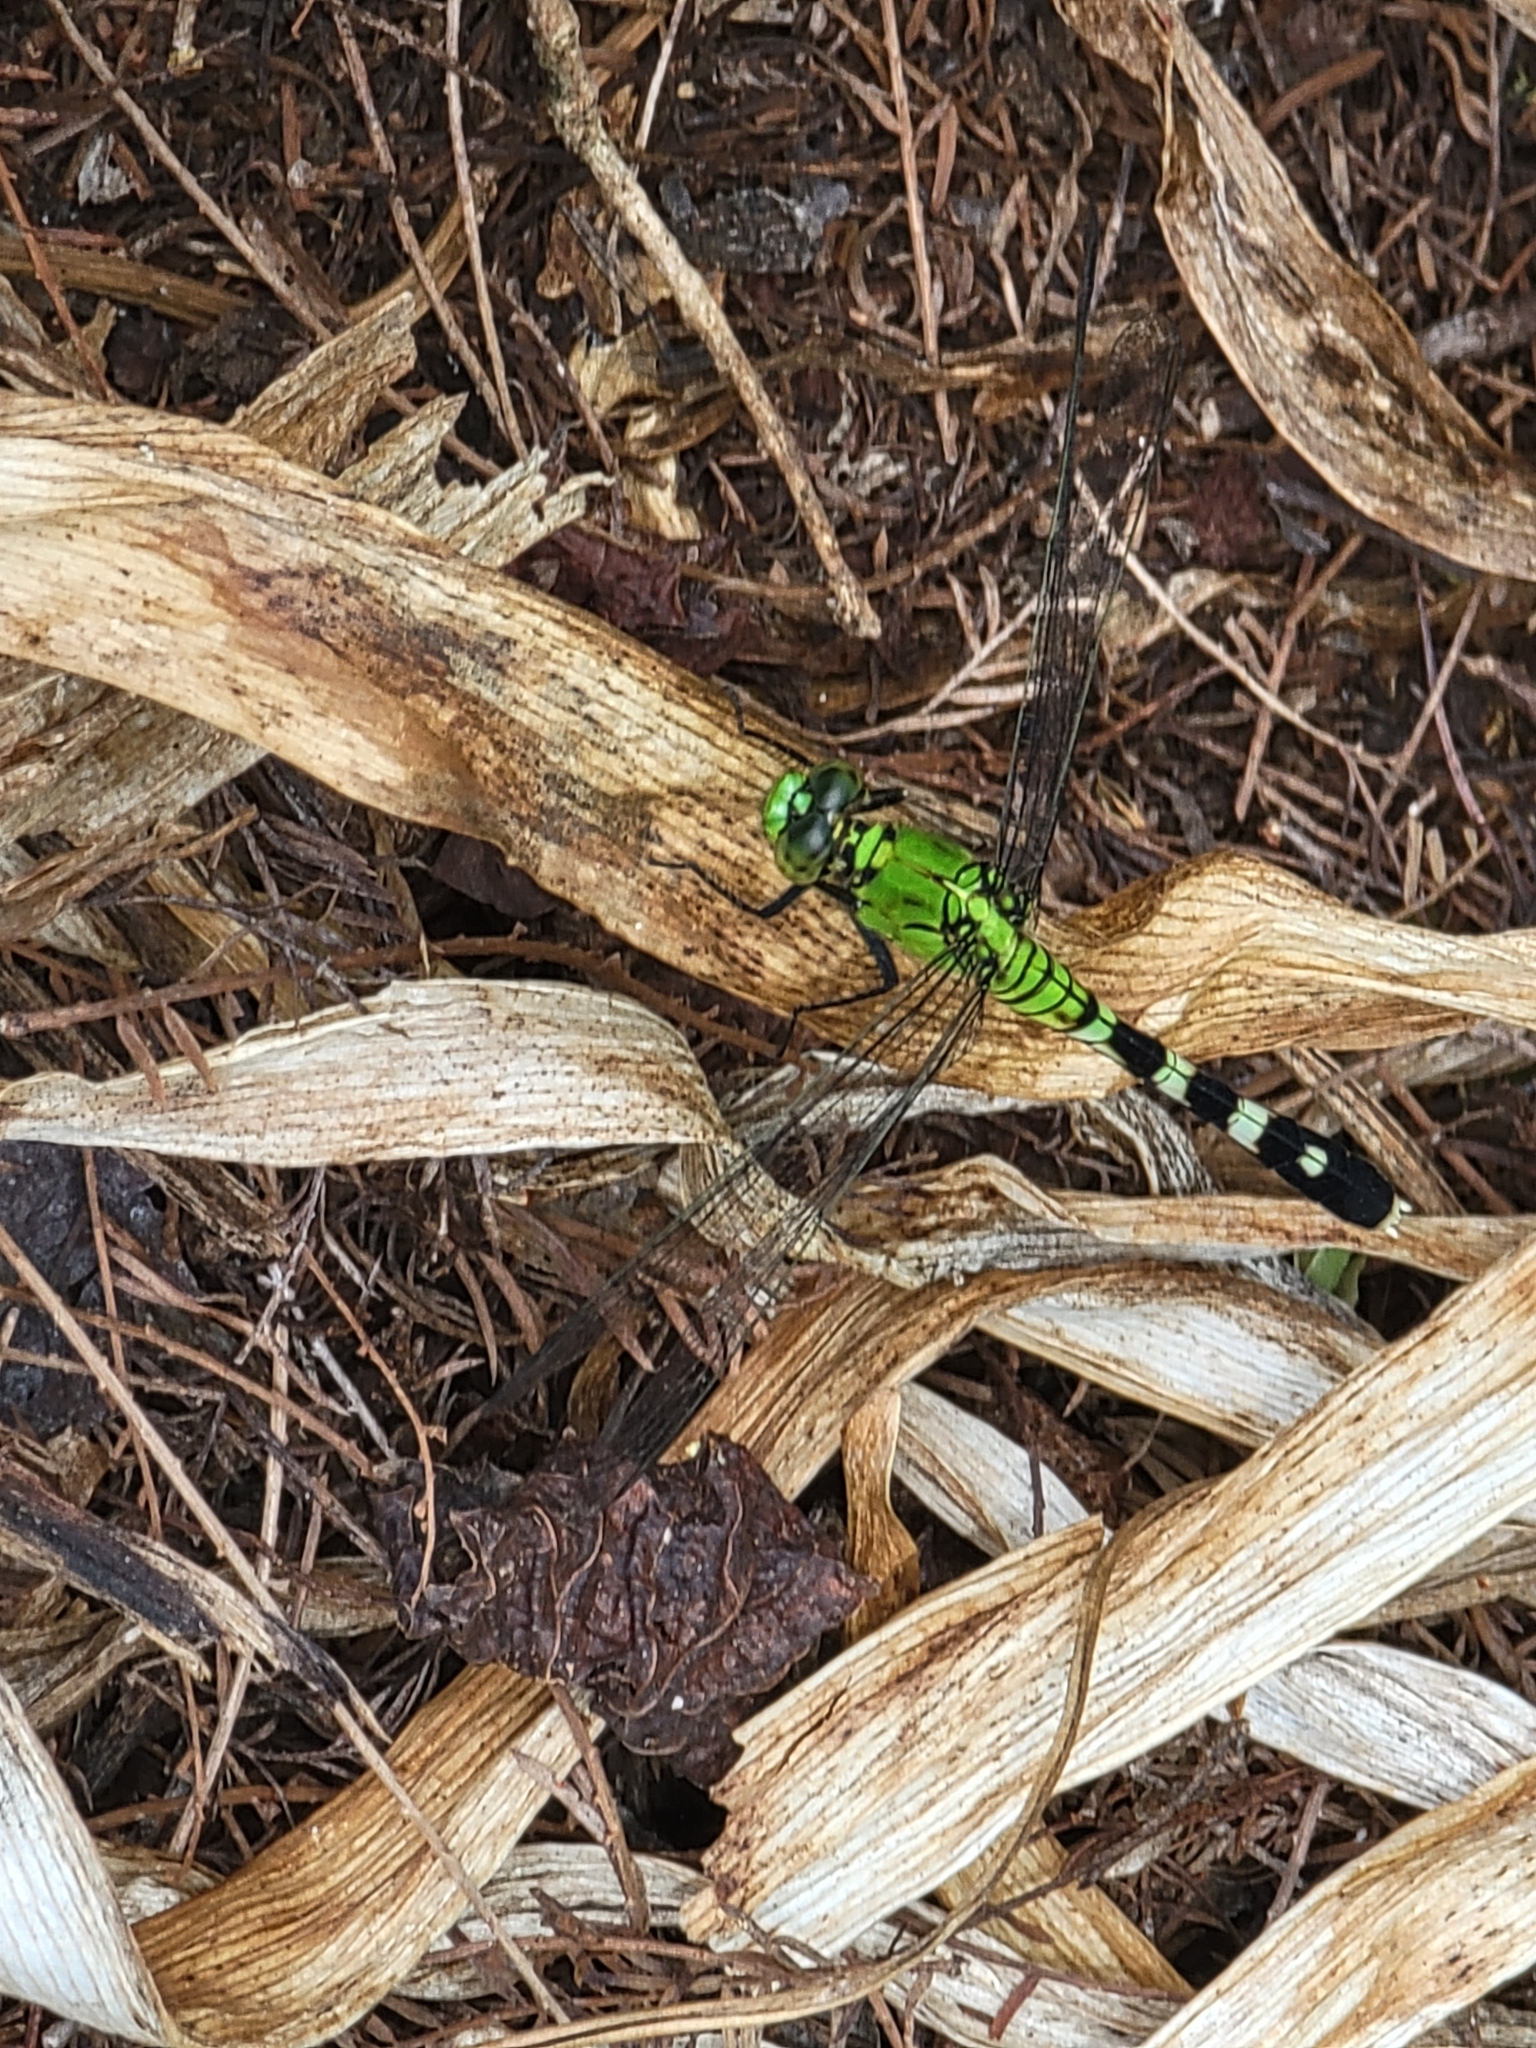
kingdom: Animalia
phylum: Arthropoda
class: Insecta
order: Odonata
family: Libellulidae
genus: Erythemis
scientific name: Erythemis simplicicollis
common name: Eastern pondhawk
